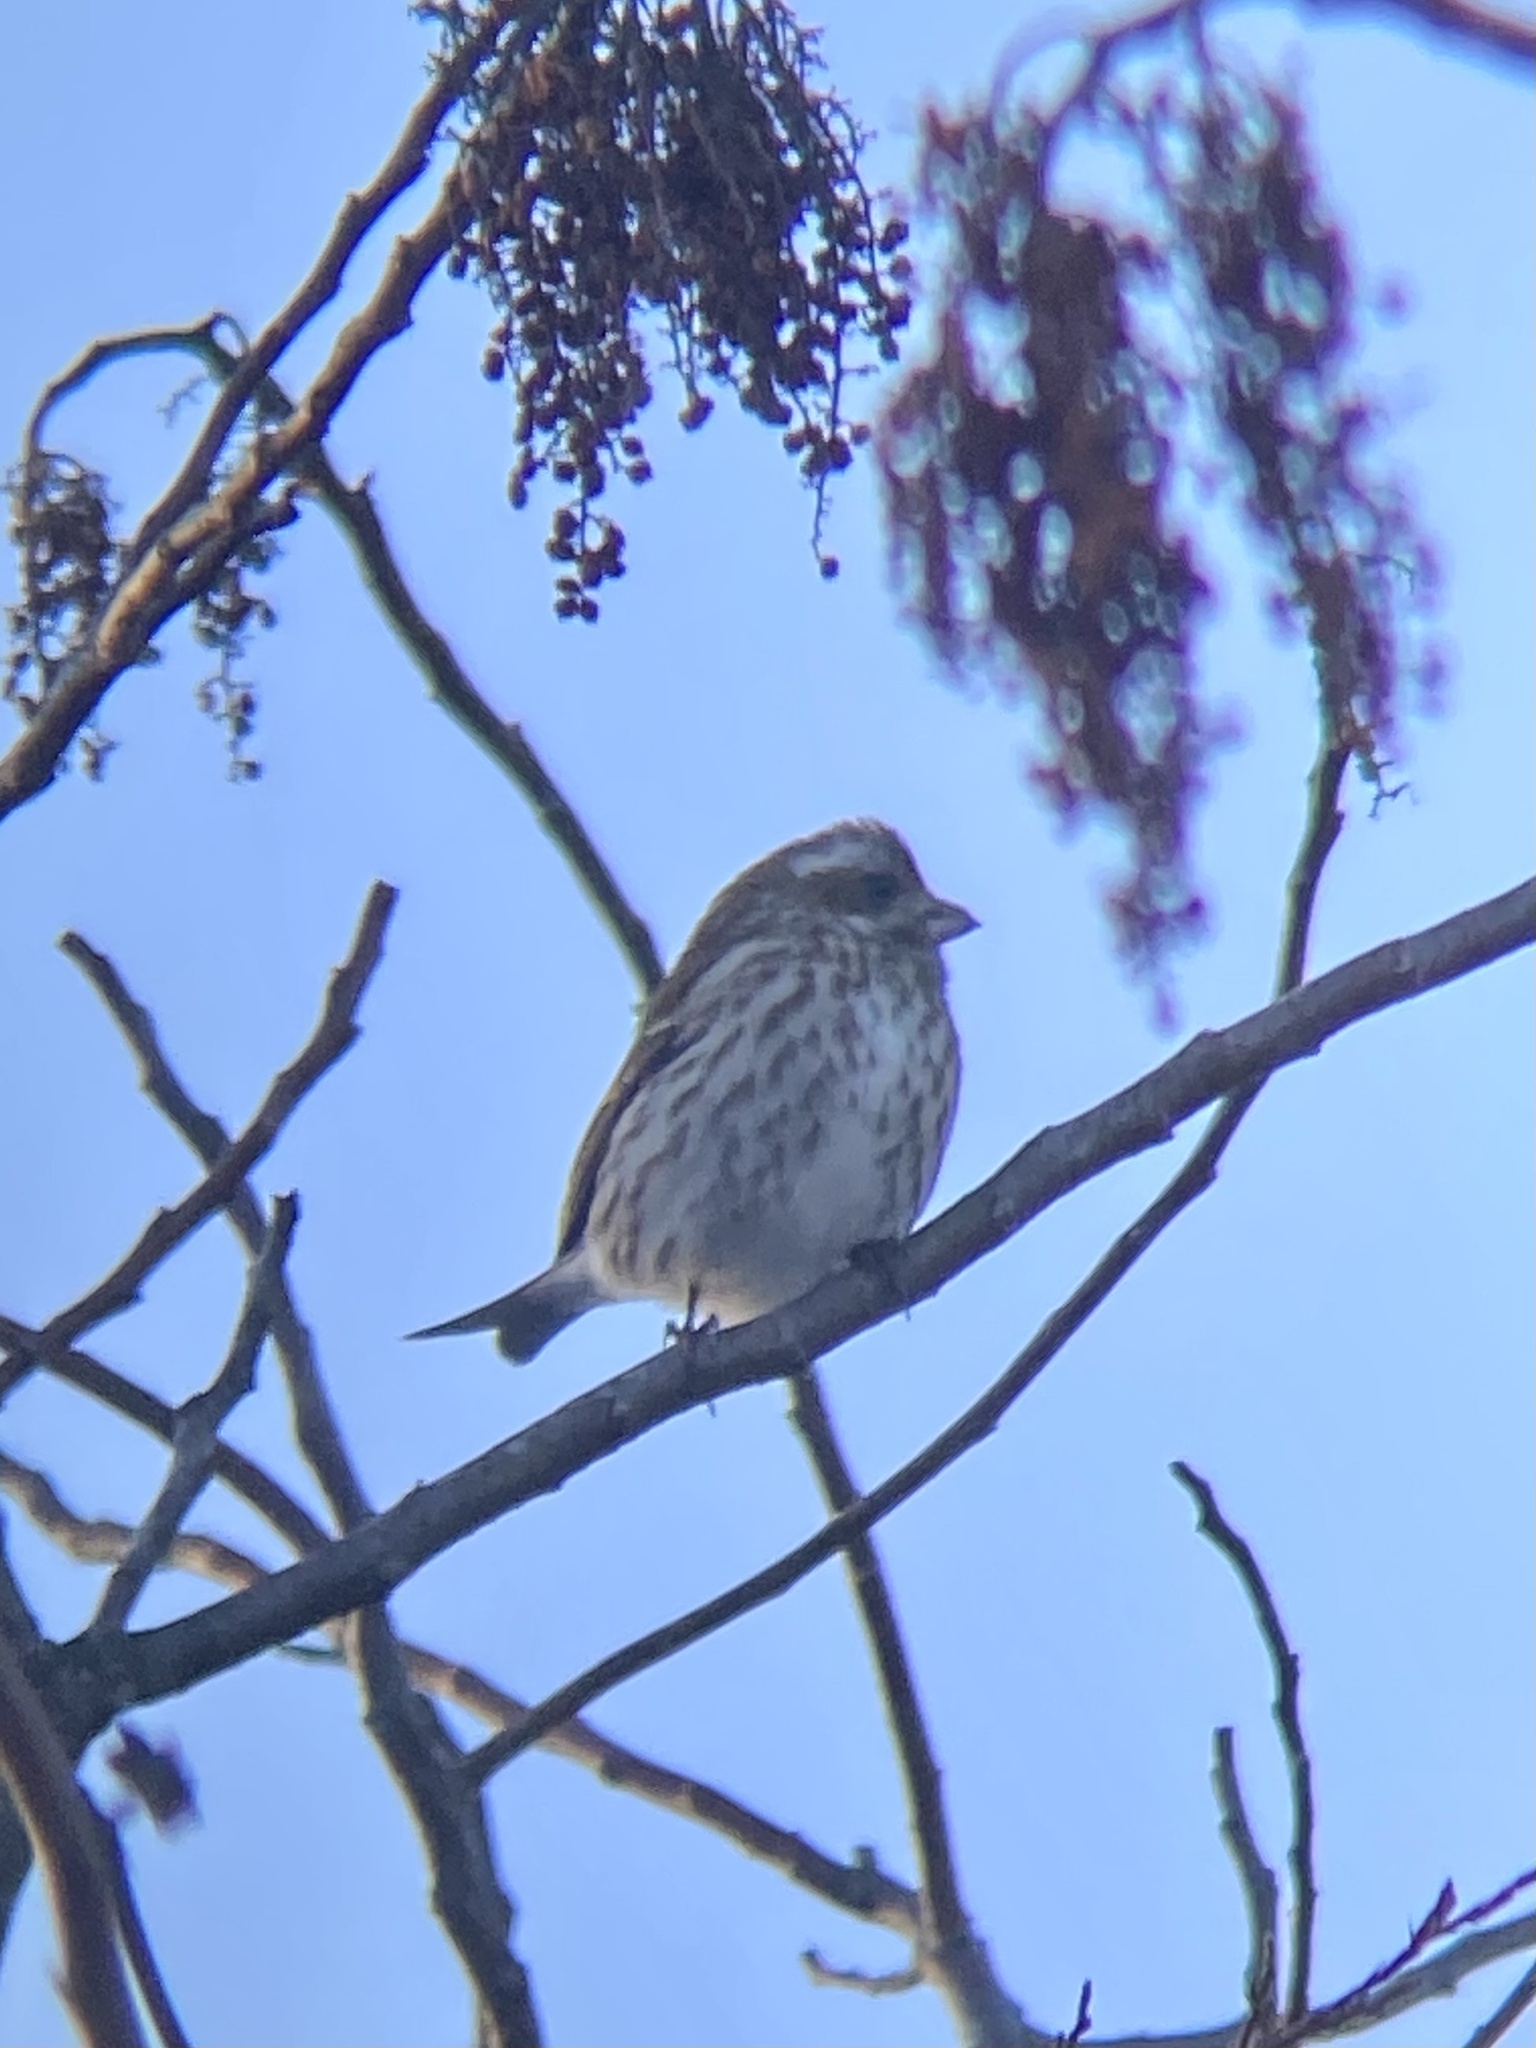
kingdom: Animalia
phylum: Chordata
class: Aves
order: Passeriformes
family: Fringillidae
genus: Haemorhous
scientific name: Haemorhous purpureus
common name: Purple finch
